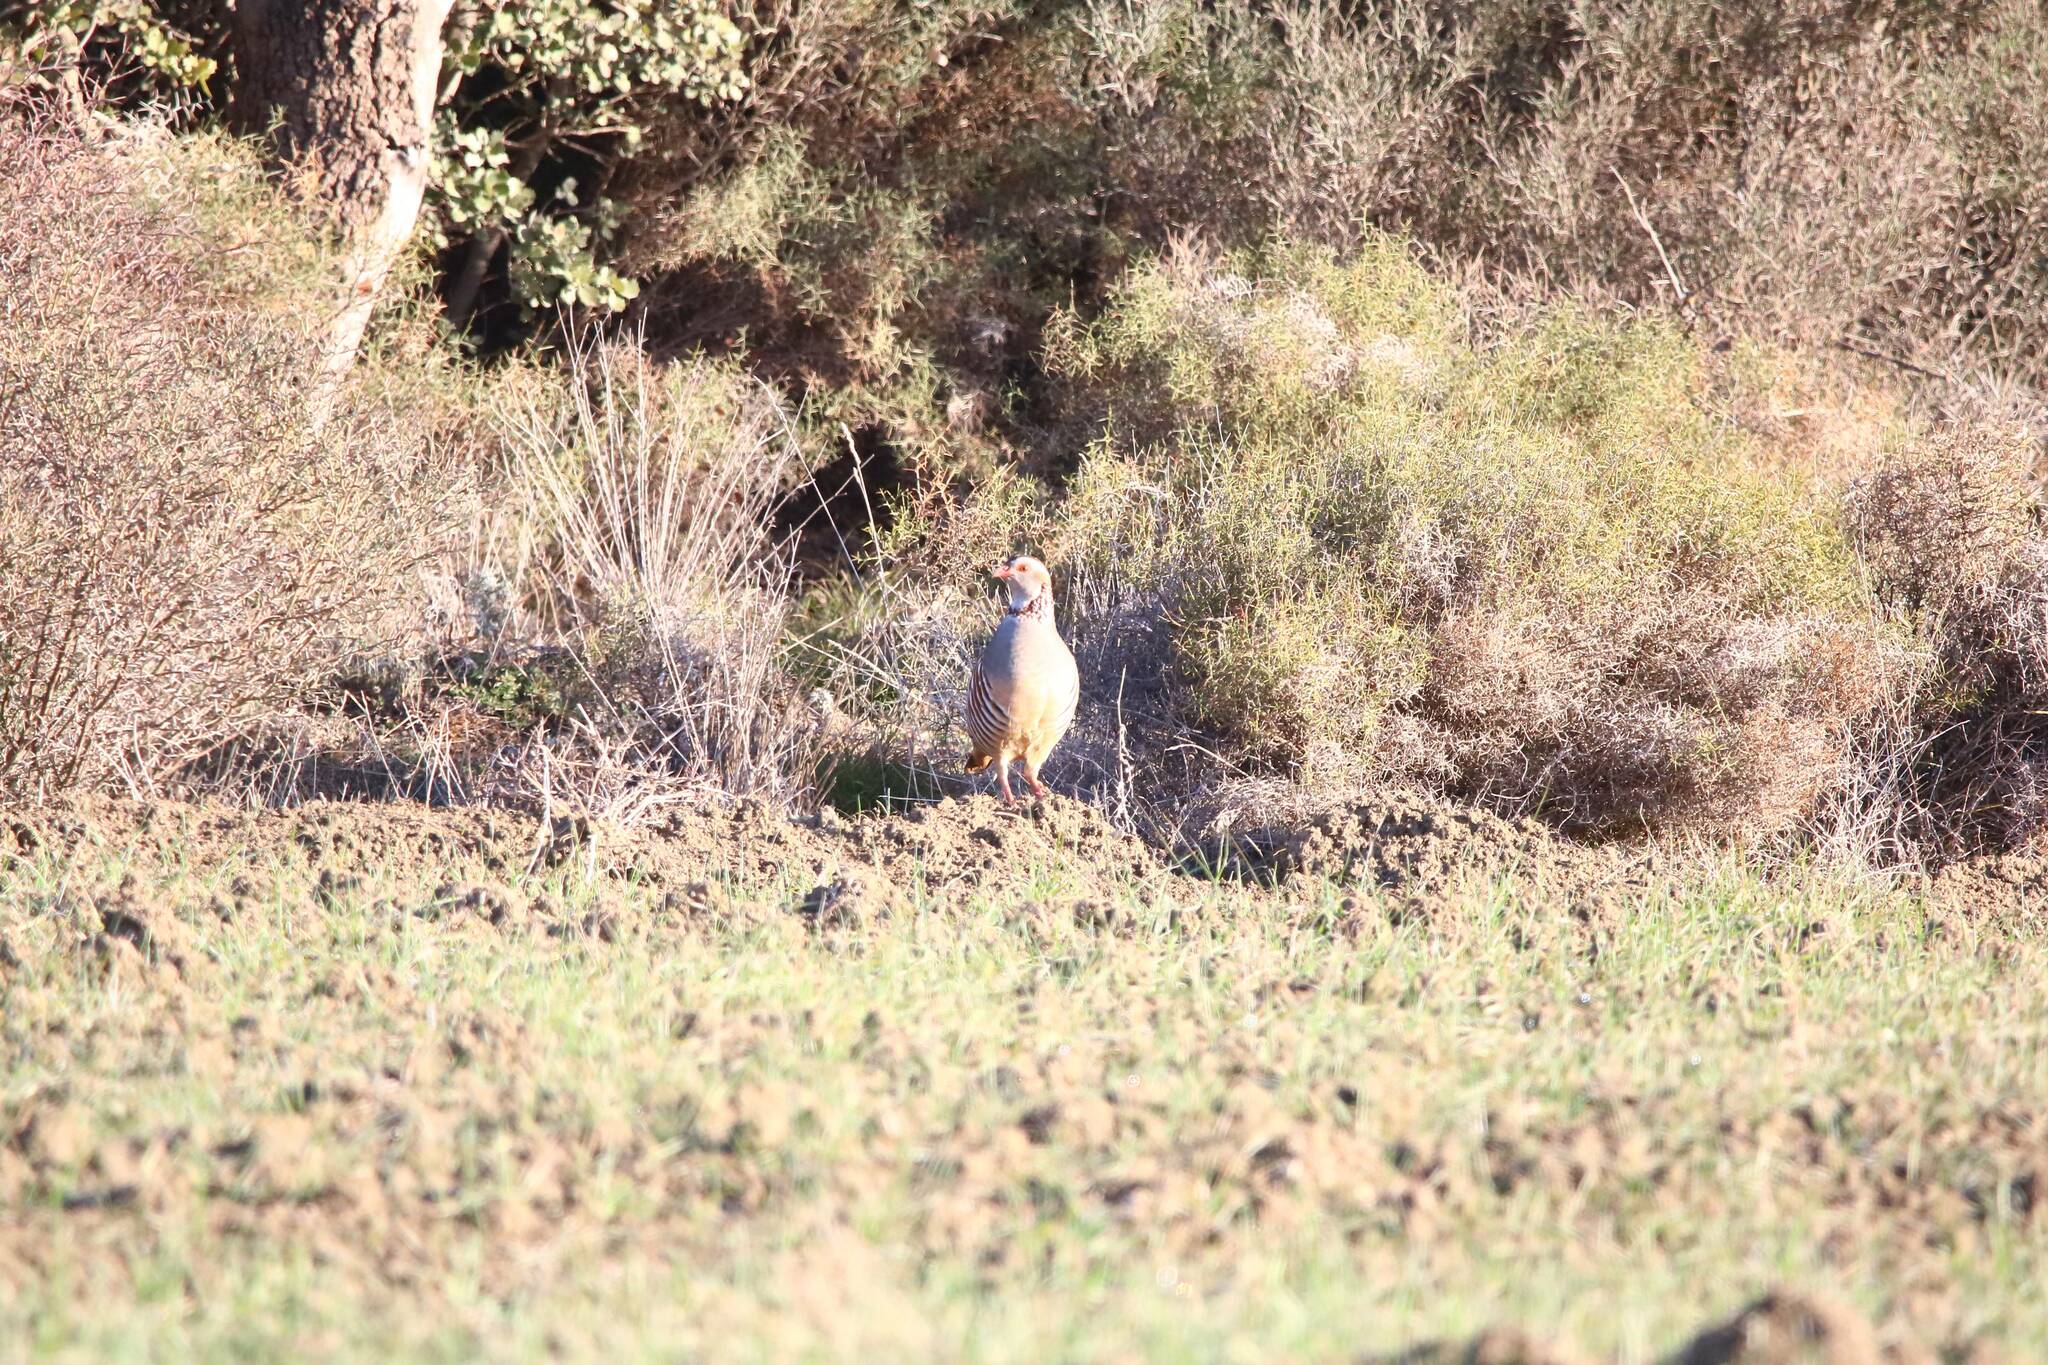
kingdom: Animalia
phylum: Chordata
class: Aves
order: Galliformes
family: Phasianidae
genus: Alectoris
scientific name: Alectoris barbara
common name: Barbary partridge
